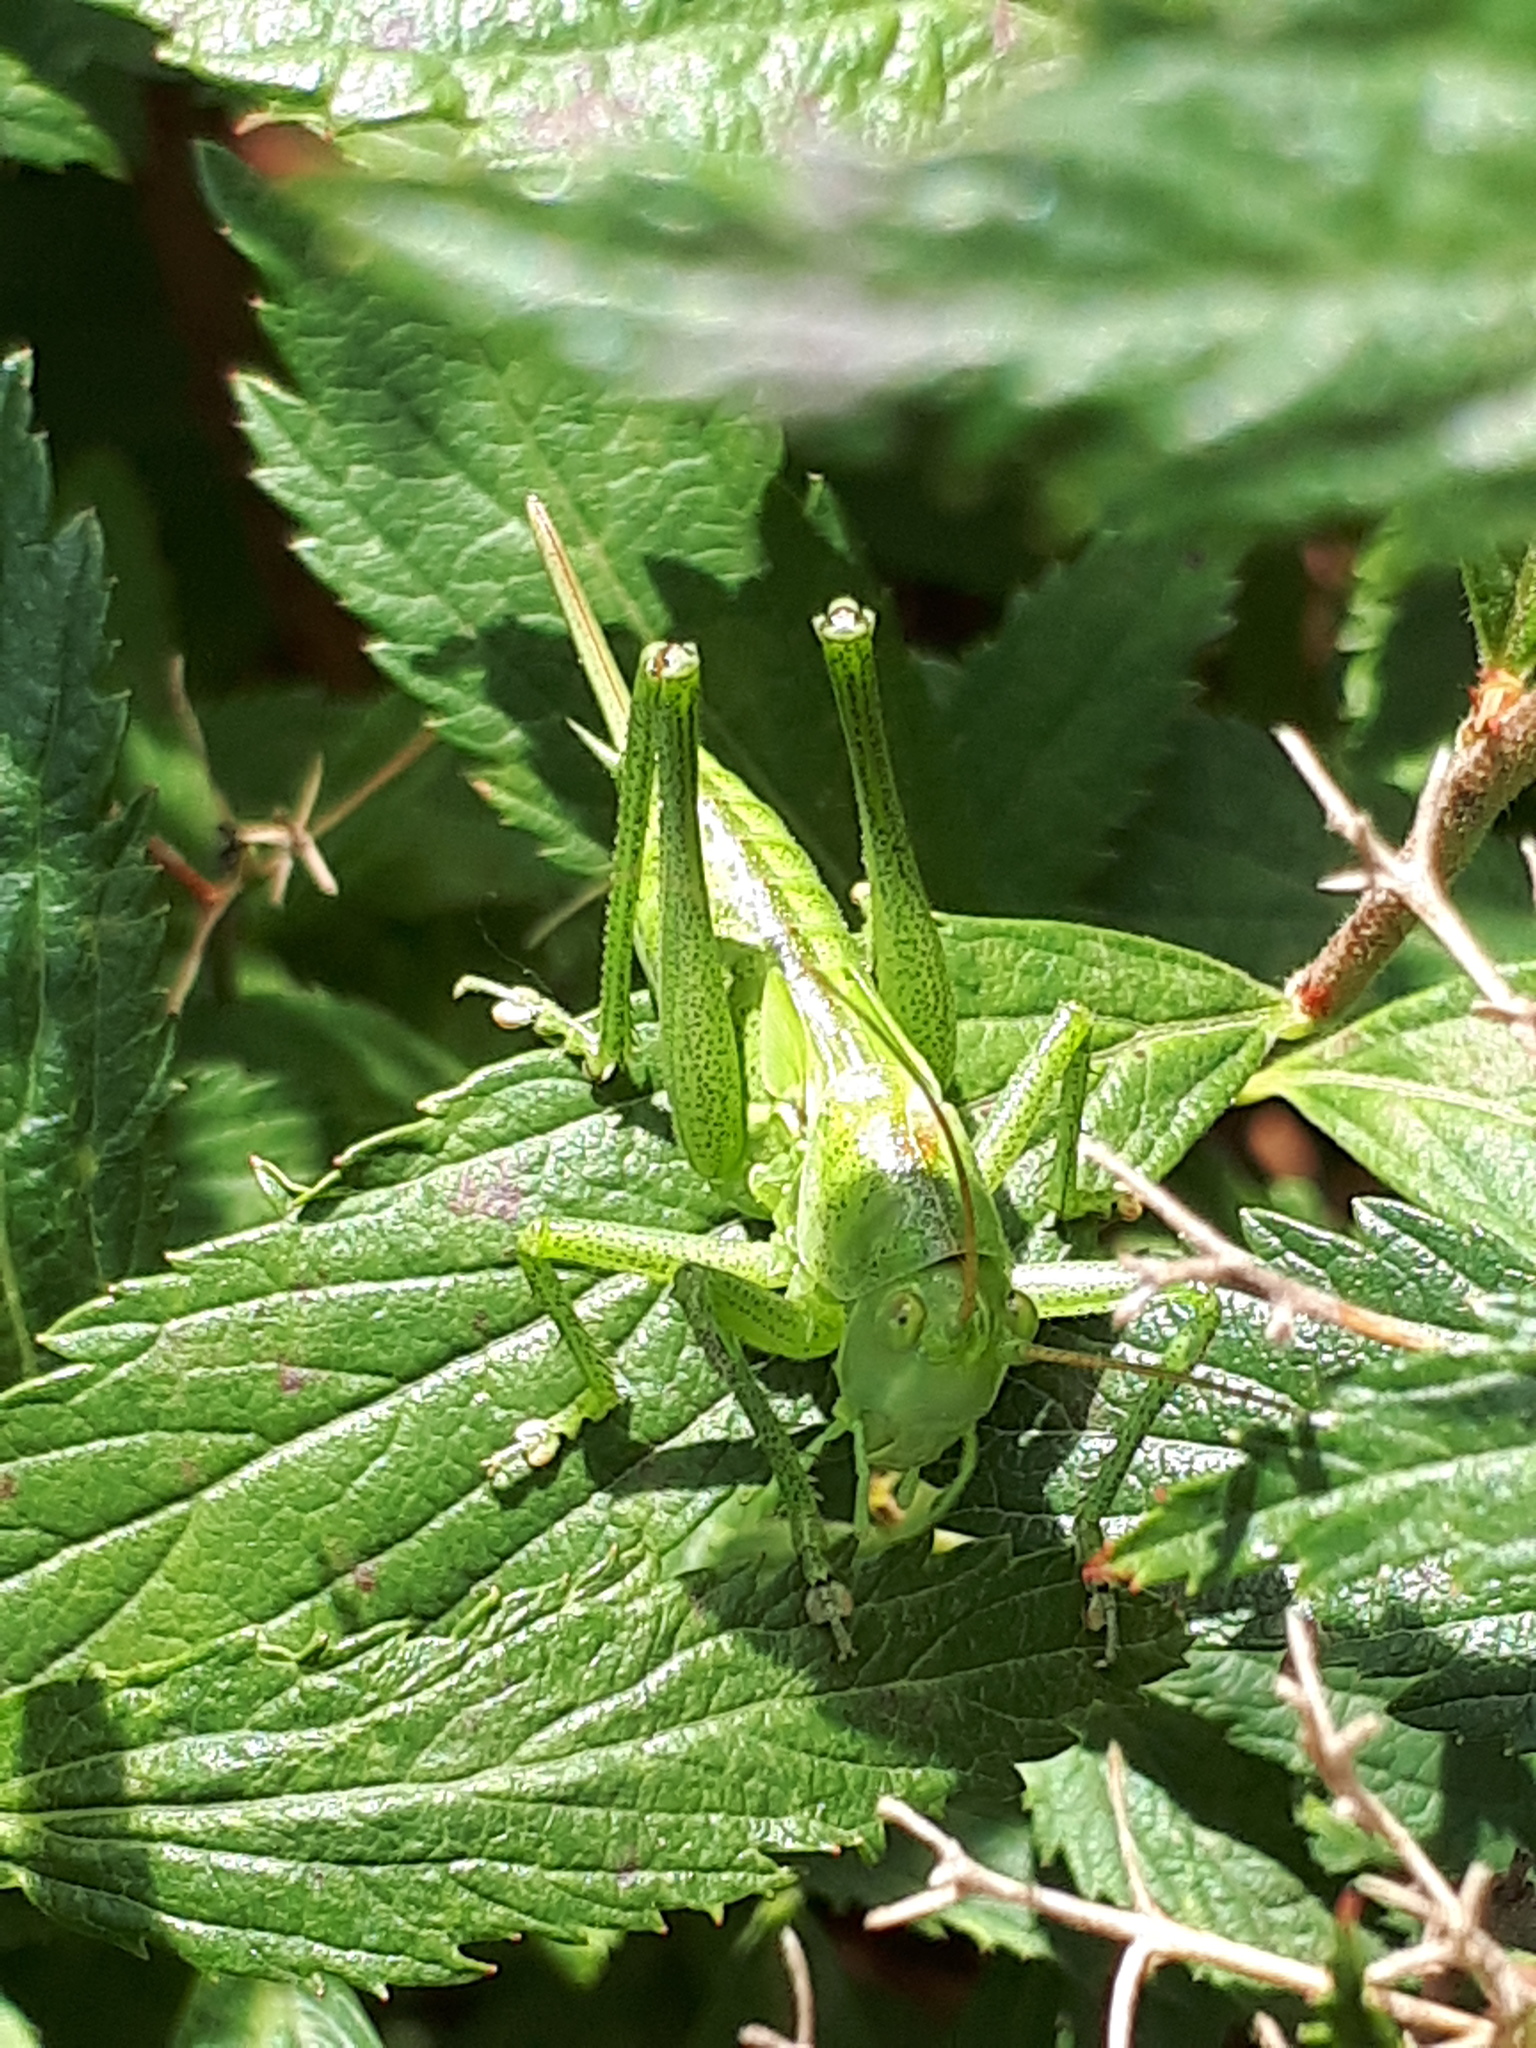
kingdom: Animalia
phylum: Arthropoda
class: Insecta
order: Orthoptera
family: Tettigoniidae
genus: Tettigonia
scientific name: Tettigonia viridissima
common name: Great green bush-cricket
